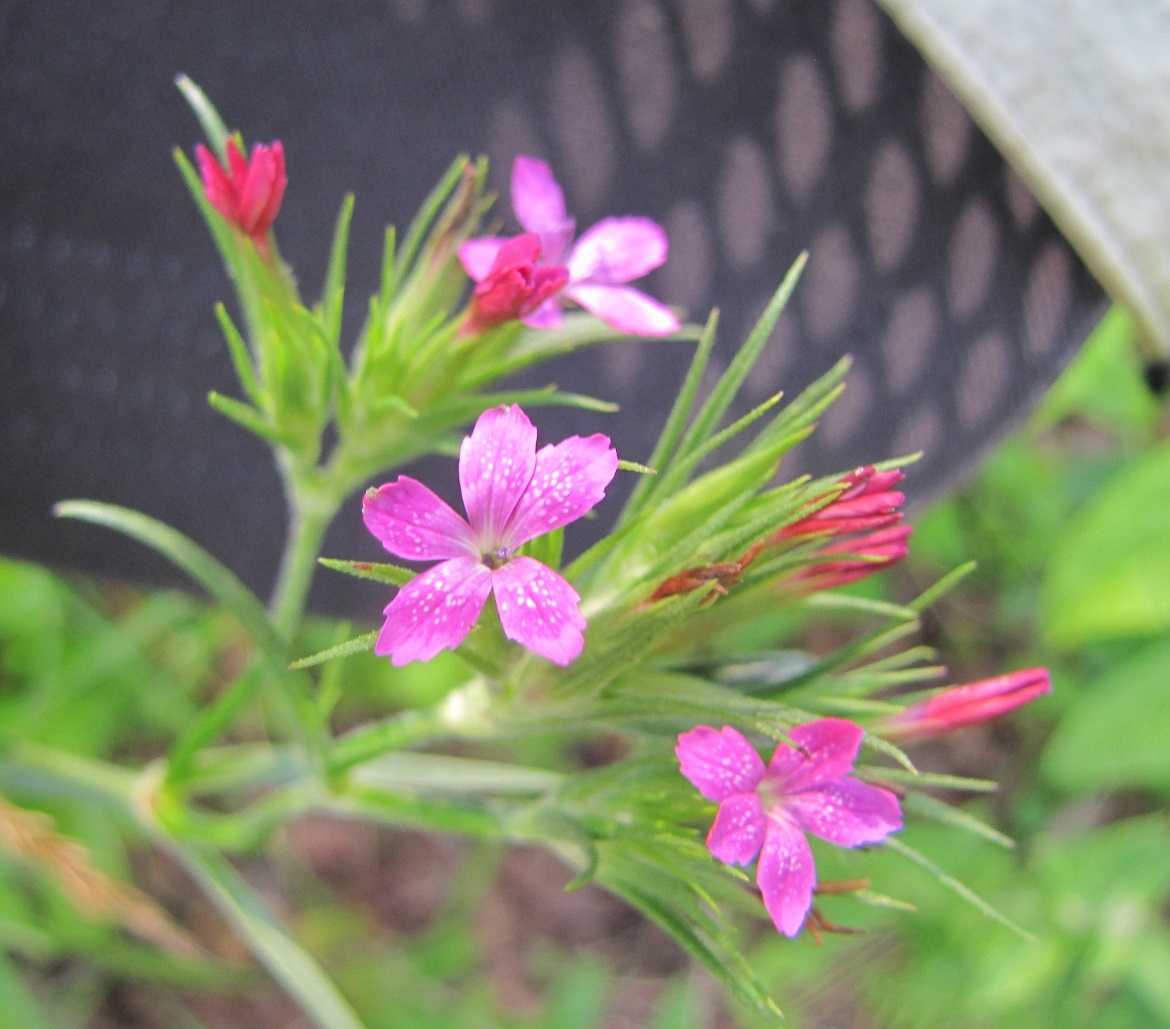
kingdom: Plantae
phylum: Tracheophyta
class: Magnoliopsida
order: Caryophyllales
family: Caryophyllaceae
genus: Dianthus
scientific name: Dianthus armeria
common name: Deptford pink
